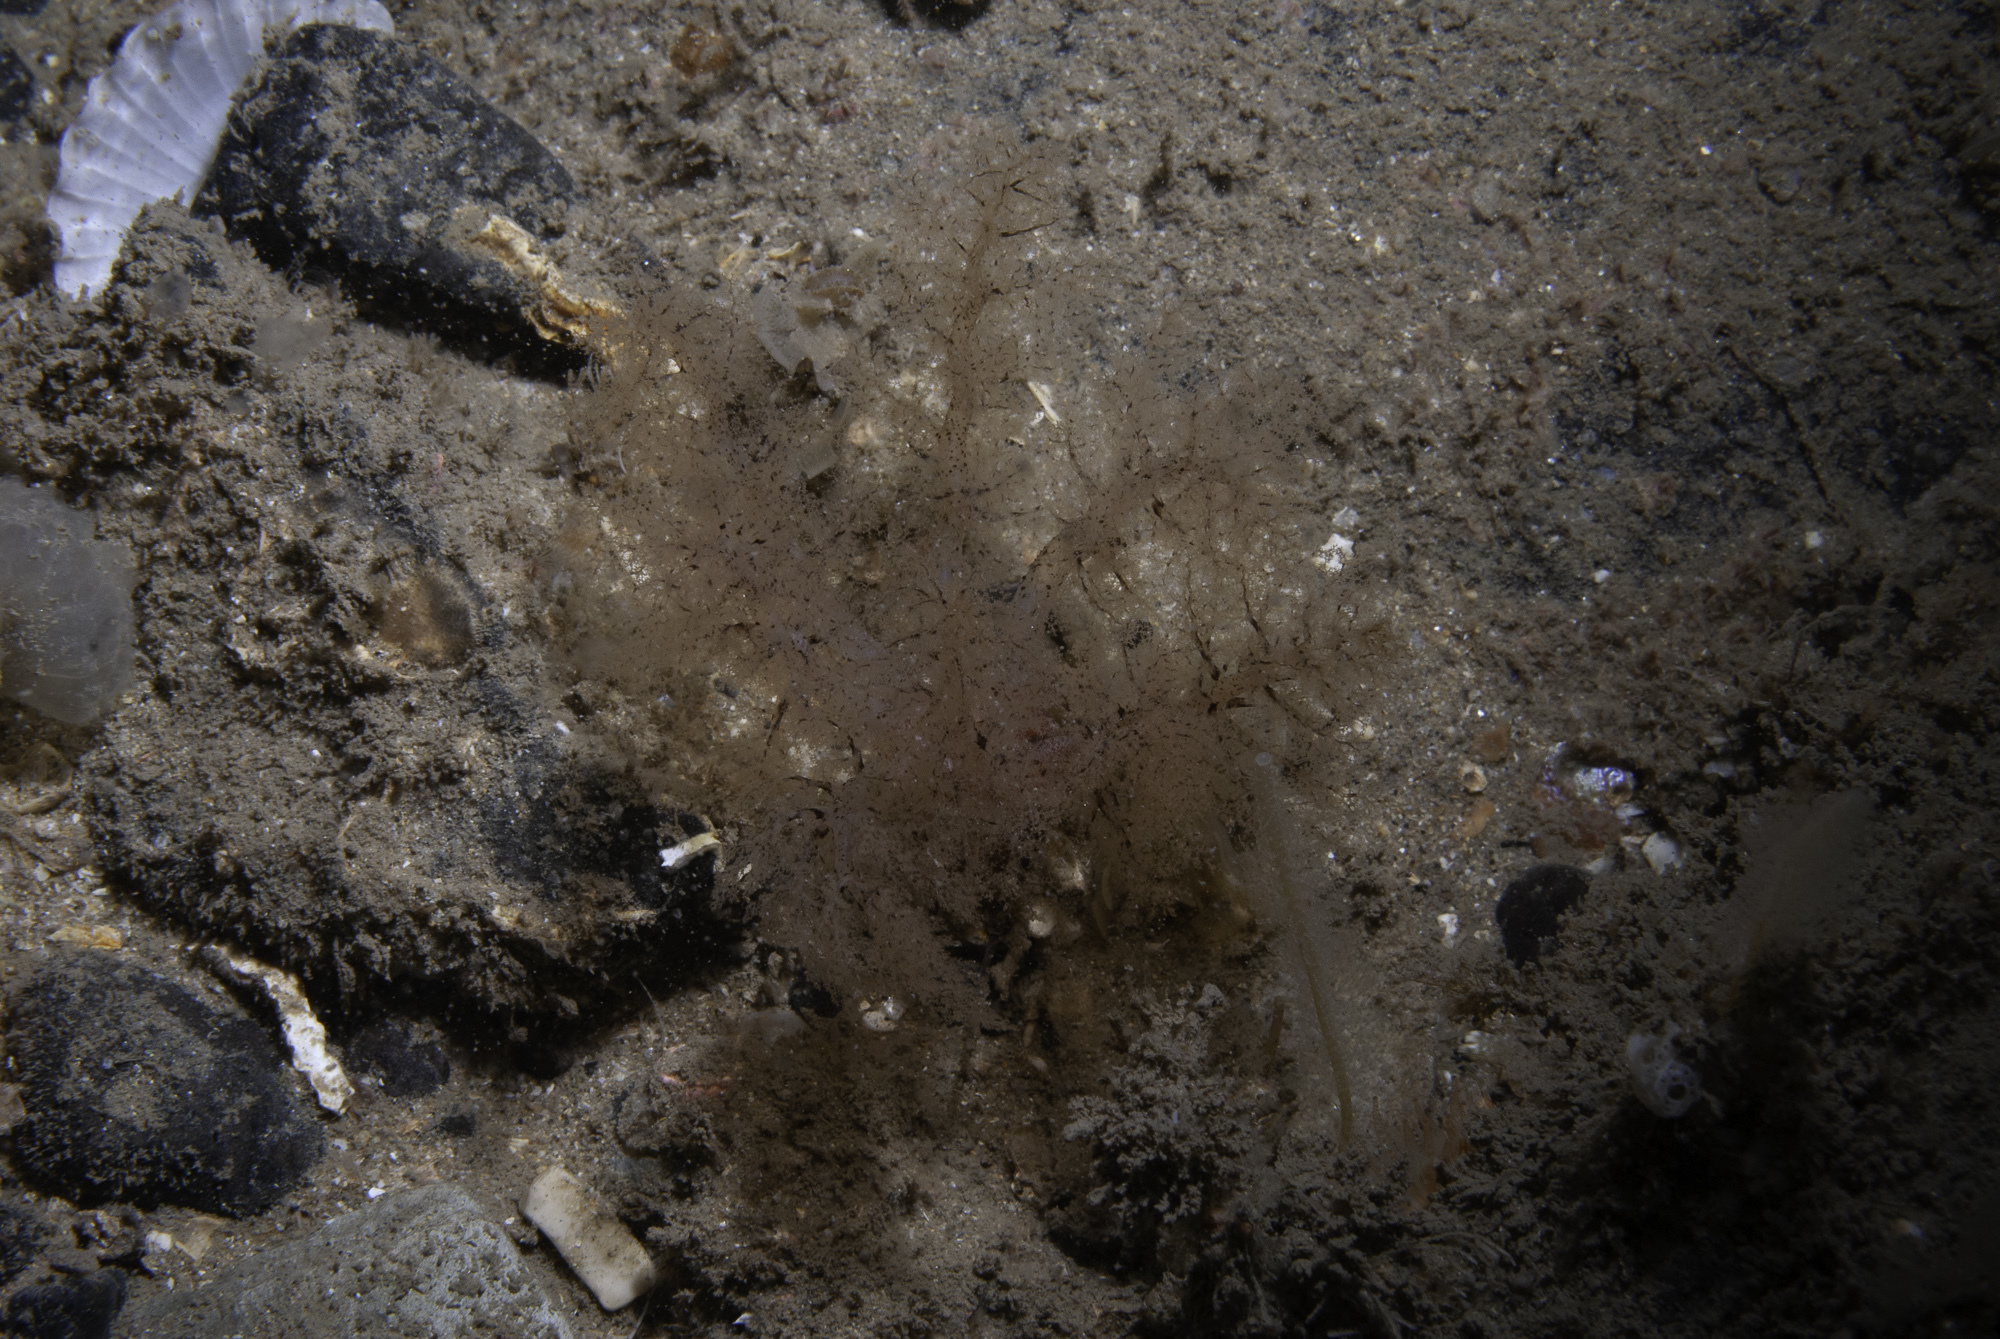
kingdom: Animalia
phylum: Echinodermata
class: Holothuroidea
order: Dendrochirotida
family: Phyllophoridae
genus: Thyone
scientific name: Thyone roscovita
